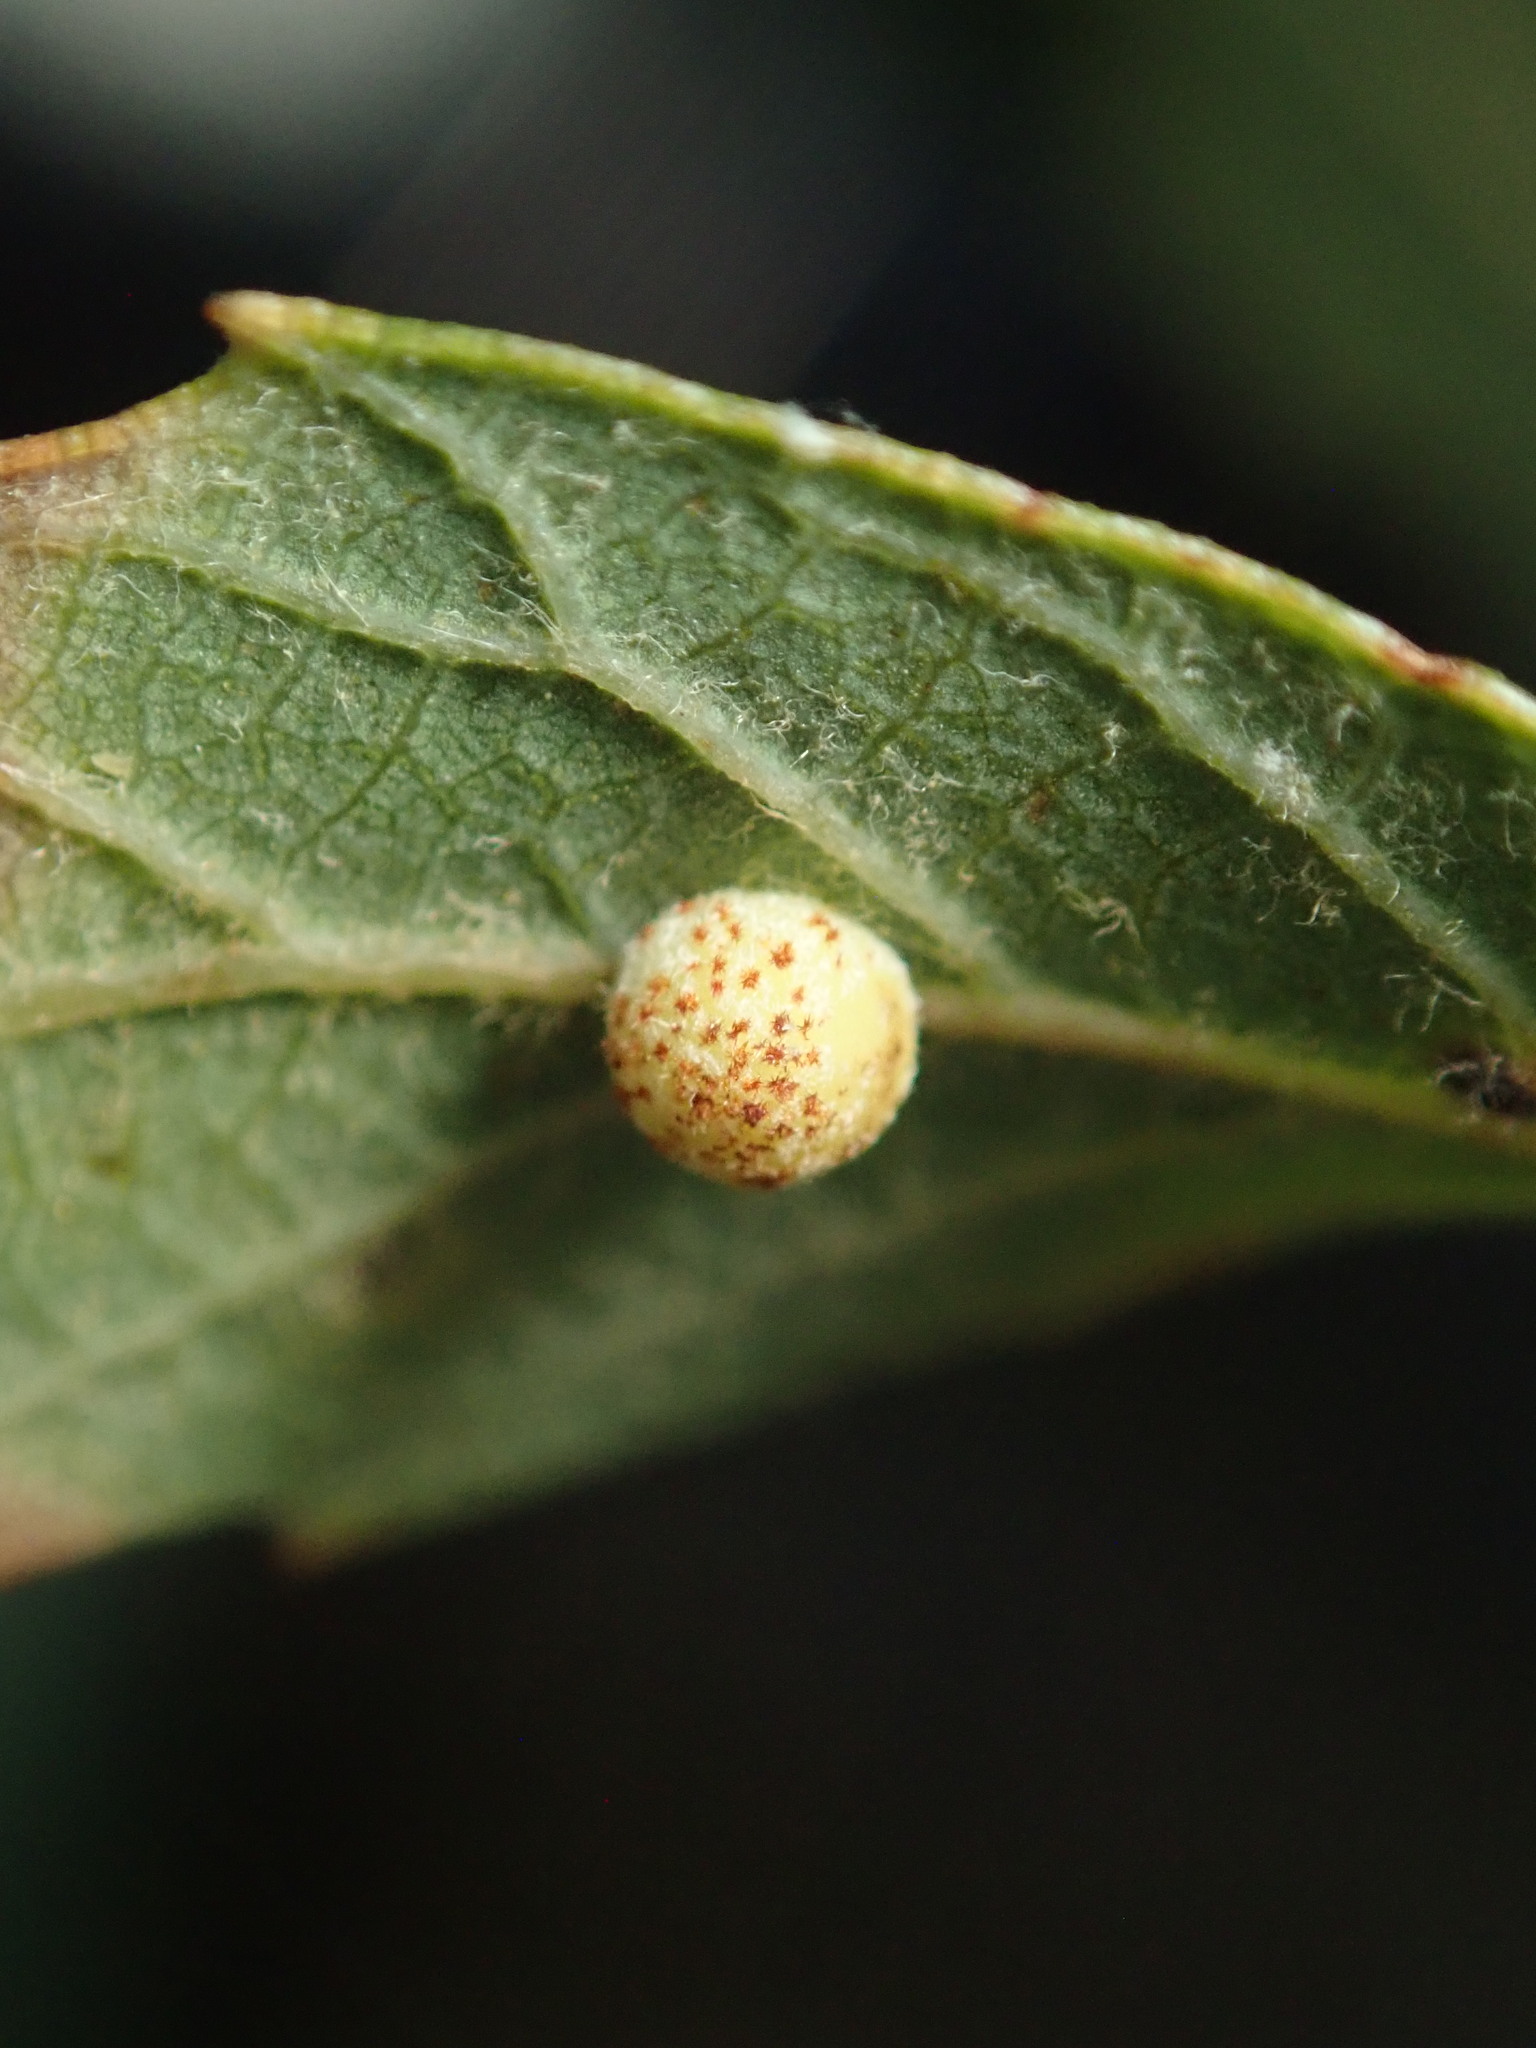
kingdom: Animalia
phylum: Arthropoda
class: Insecta
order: Hymenoptera
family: Cynipidae
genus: Cynips
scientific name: Cynips Antron tomkursari
